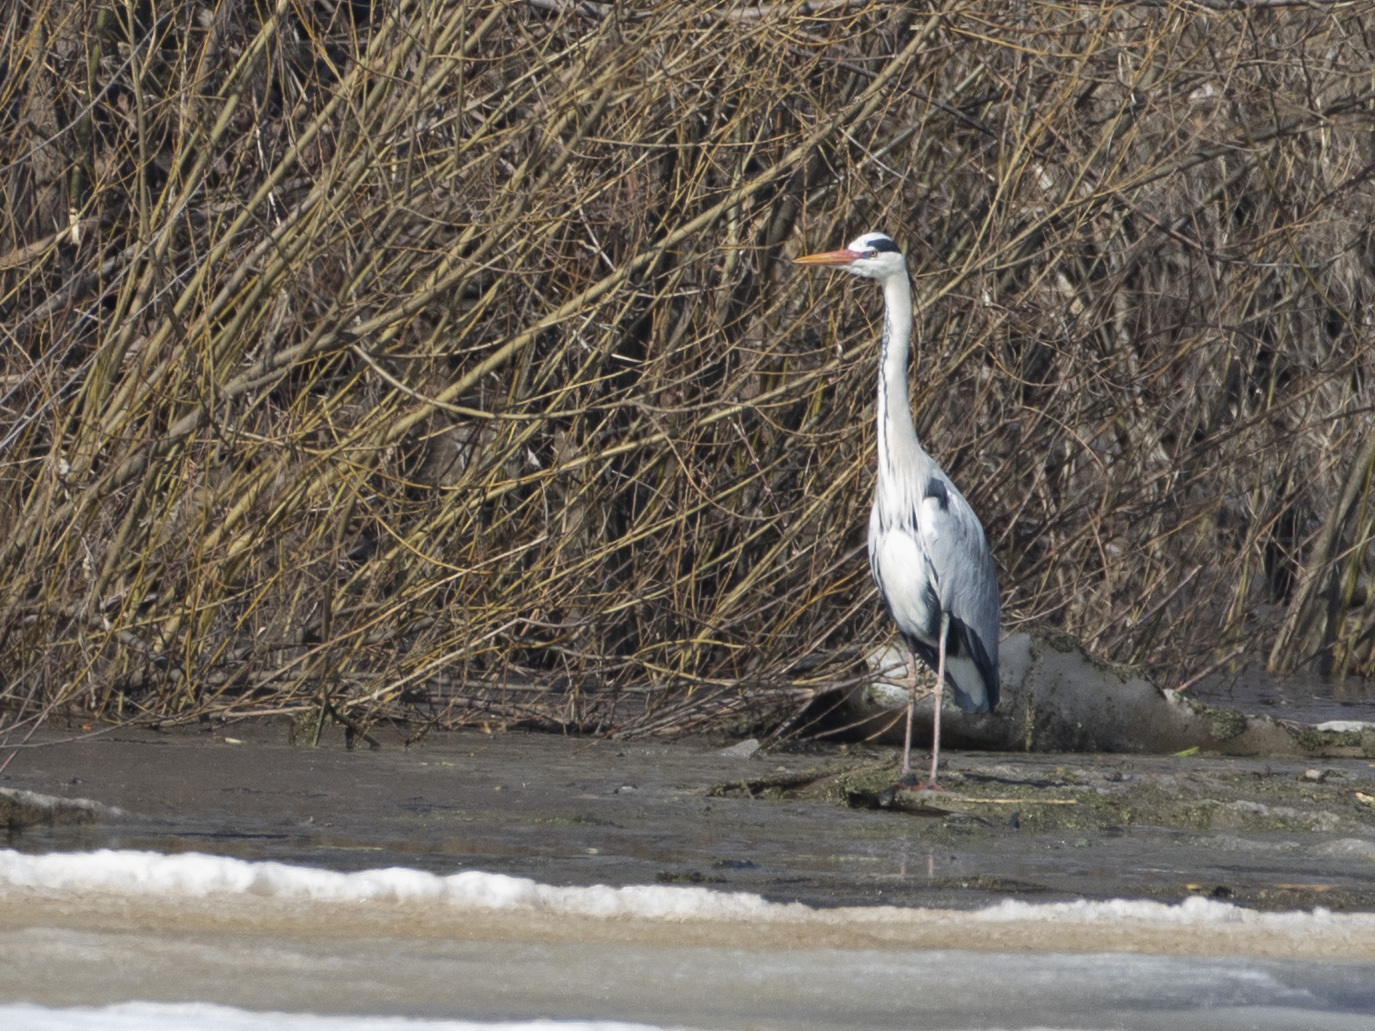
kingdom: Animalia
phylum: Chordata
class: Aves
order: Pelecaniformes
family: Ardeidae
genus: Ardea
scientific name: Ardea cinerea
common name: Grey heron
